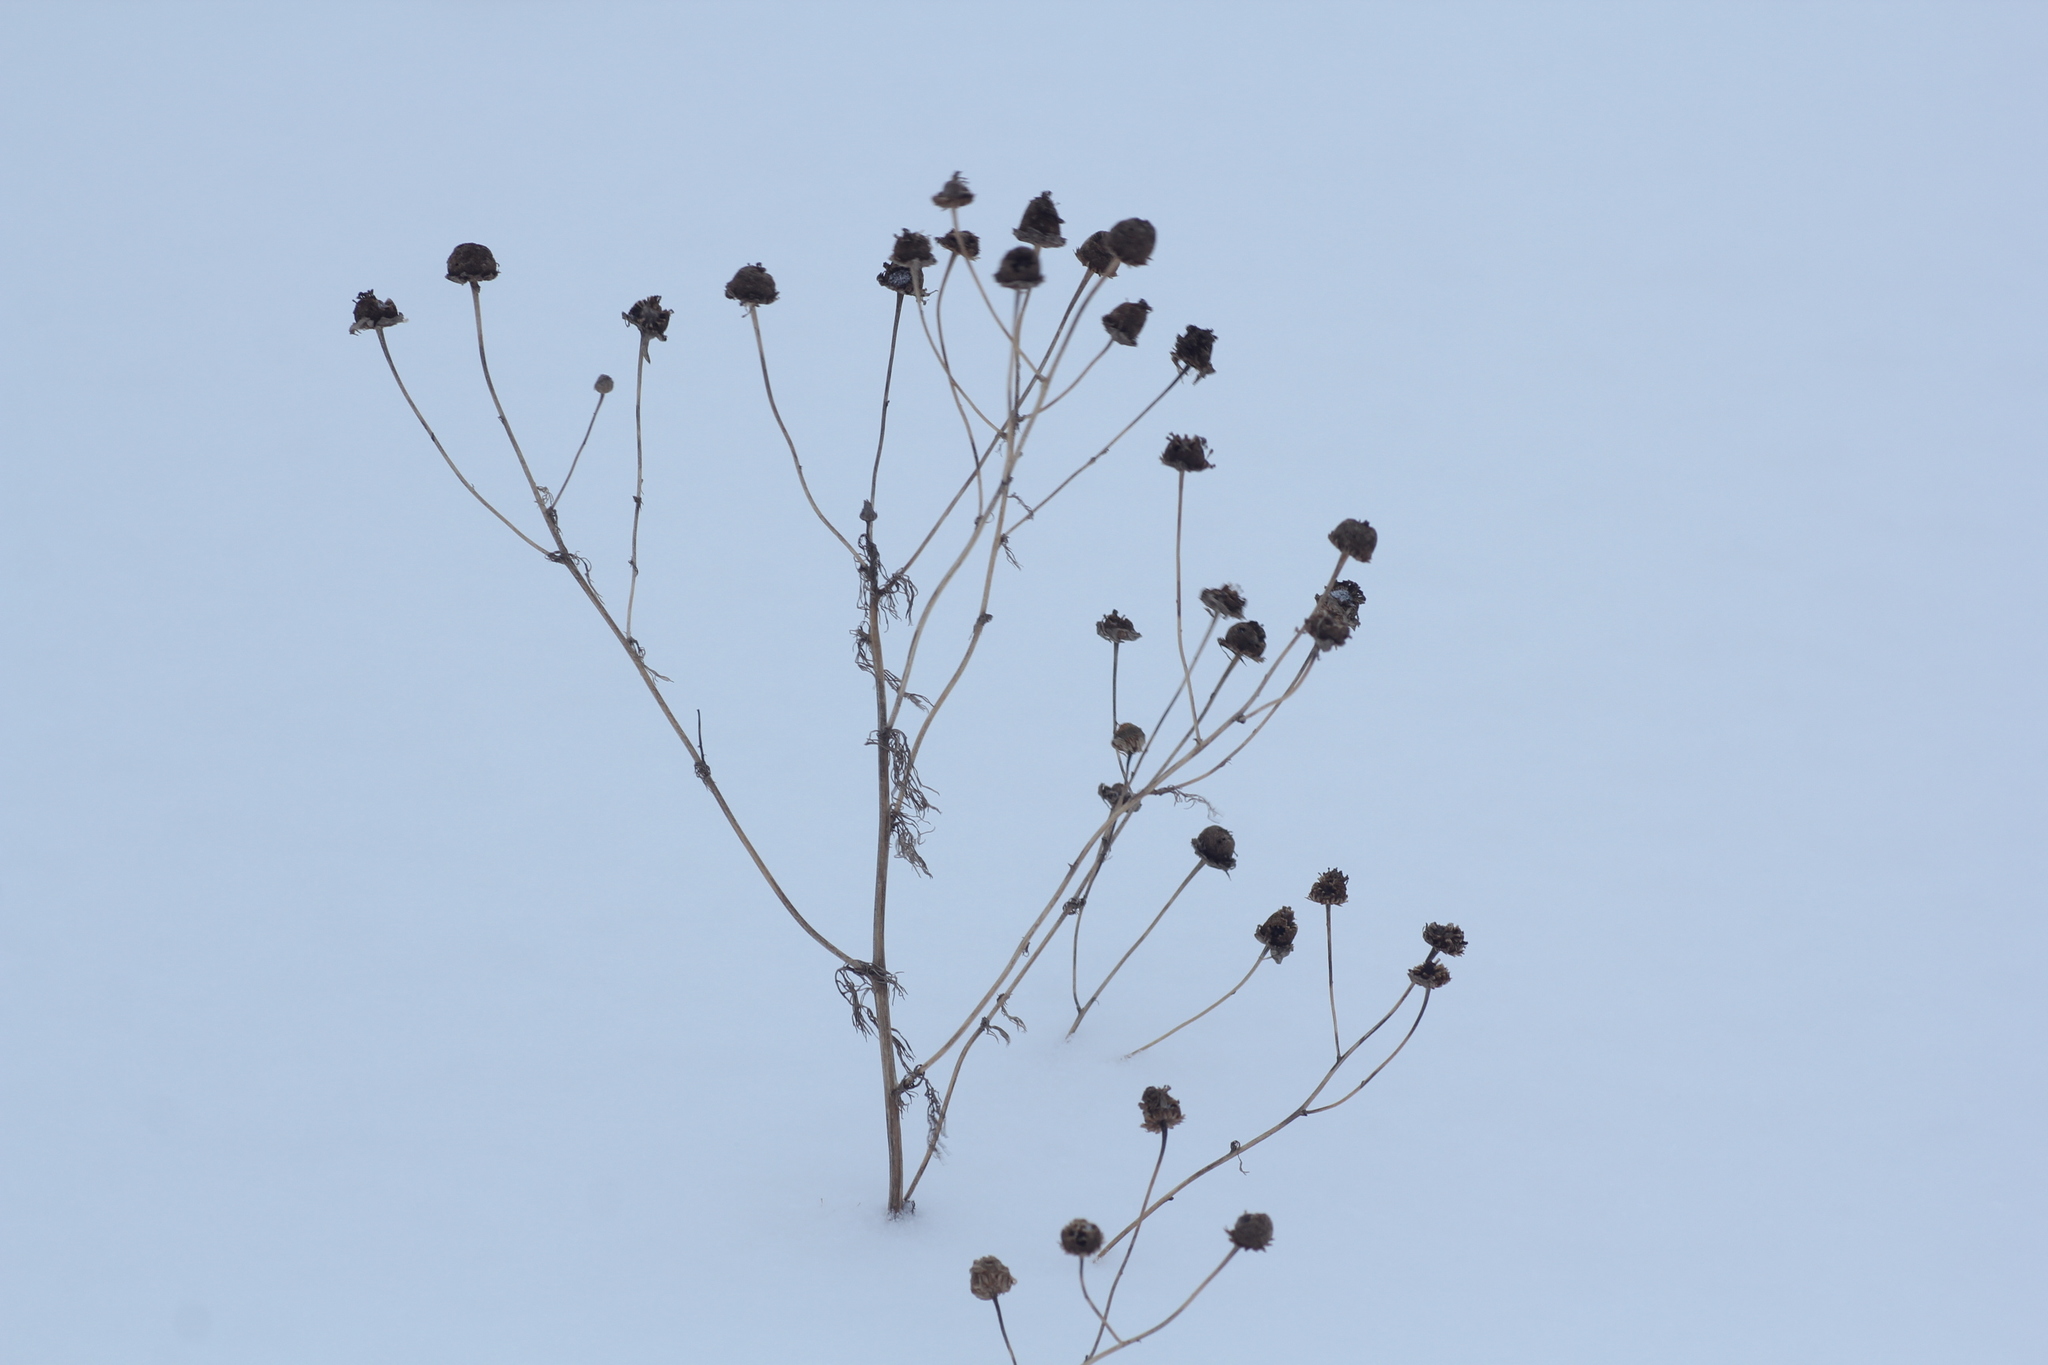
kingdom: Plantae
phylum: Tracheophyta
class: Magnoliopsida
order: Asterales
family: Asteraceae
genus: Tripleurospermum
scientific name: Tripleurospermum inodorum
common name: Scentless mayweed
